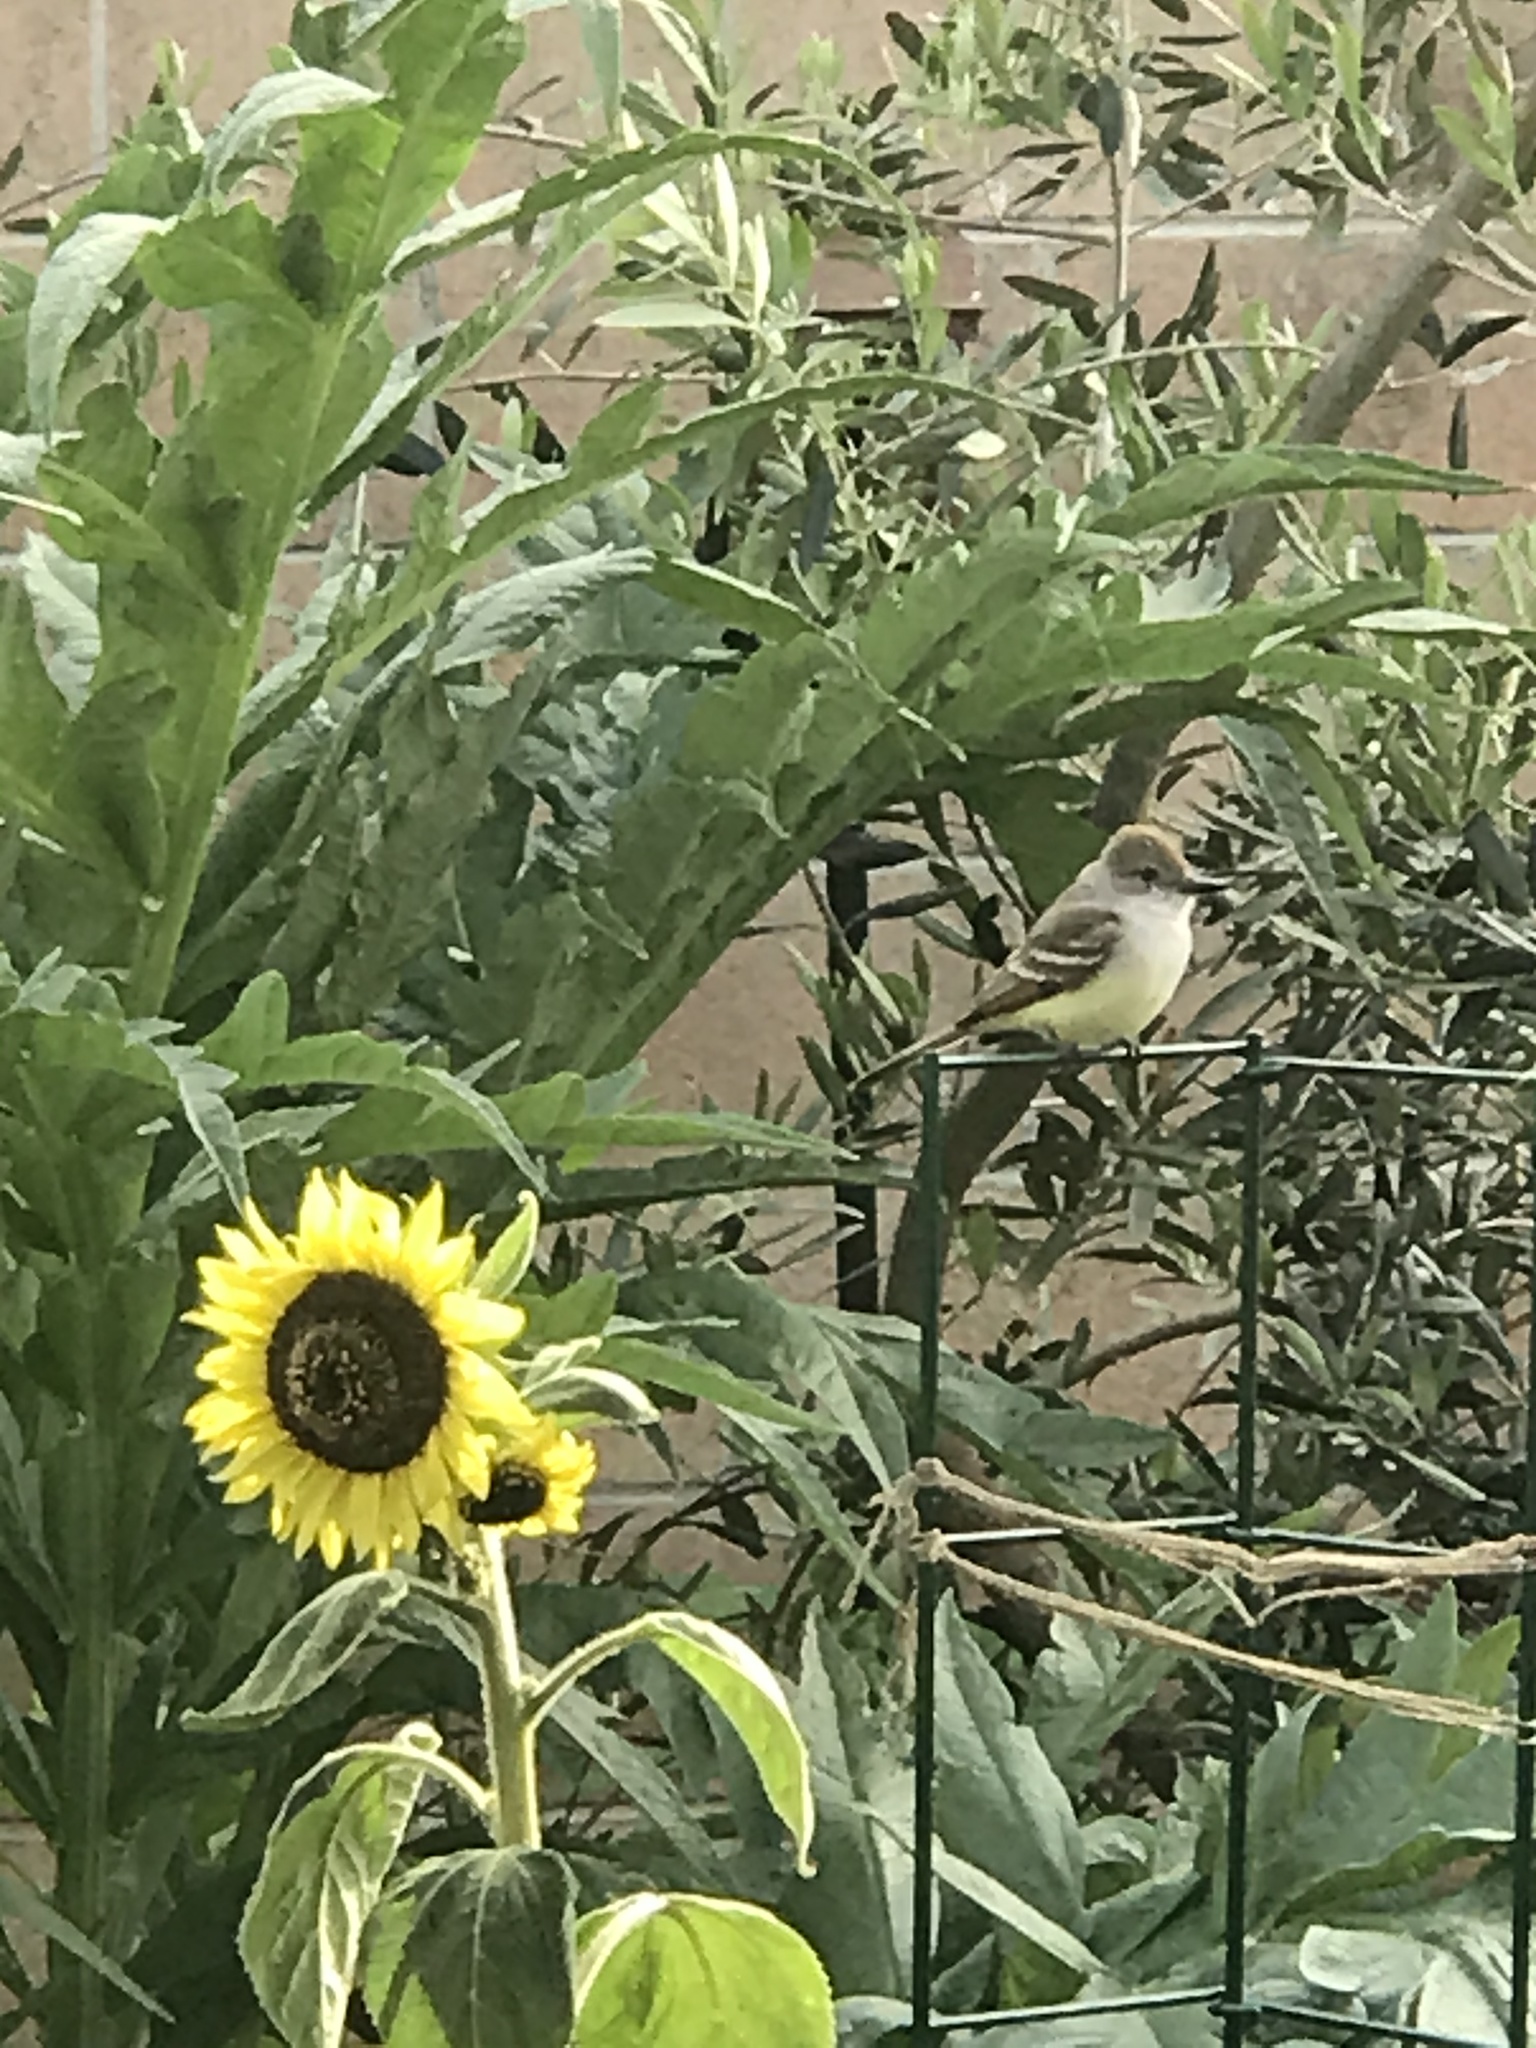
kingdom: Animalia
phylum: Chordata
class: Aves
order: Passeriformes
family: Tyrannidae
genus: Myiarchus
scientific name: Myiarchus cinerascens
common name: Ash-throated flycatcher
